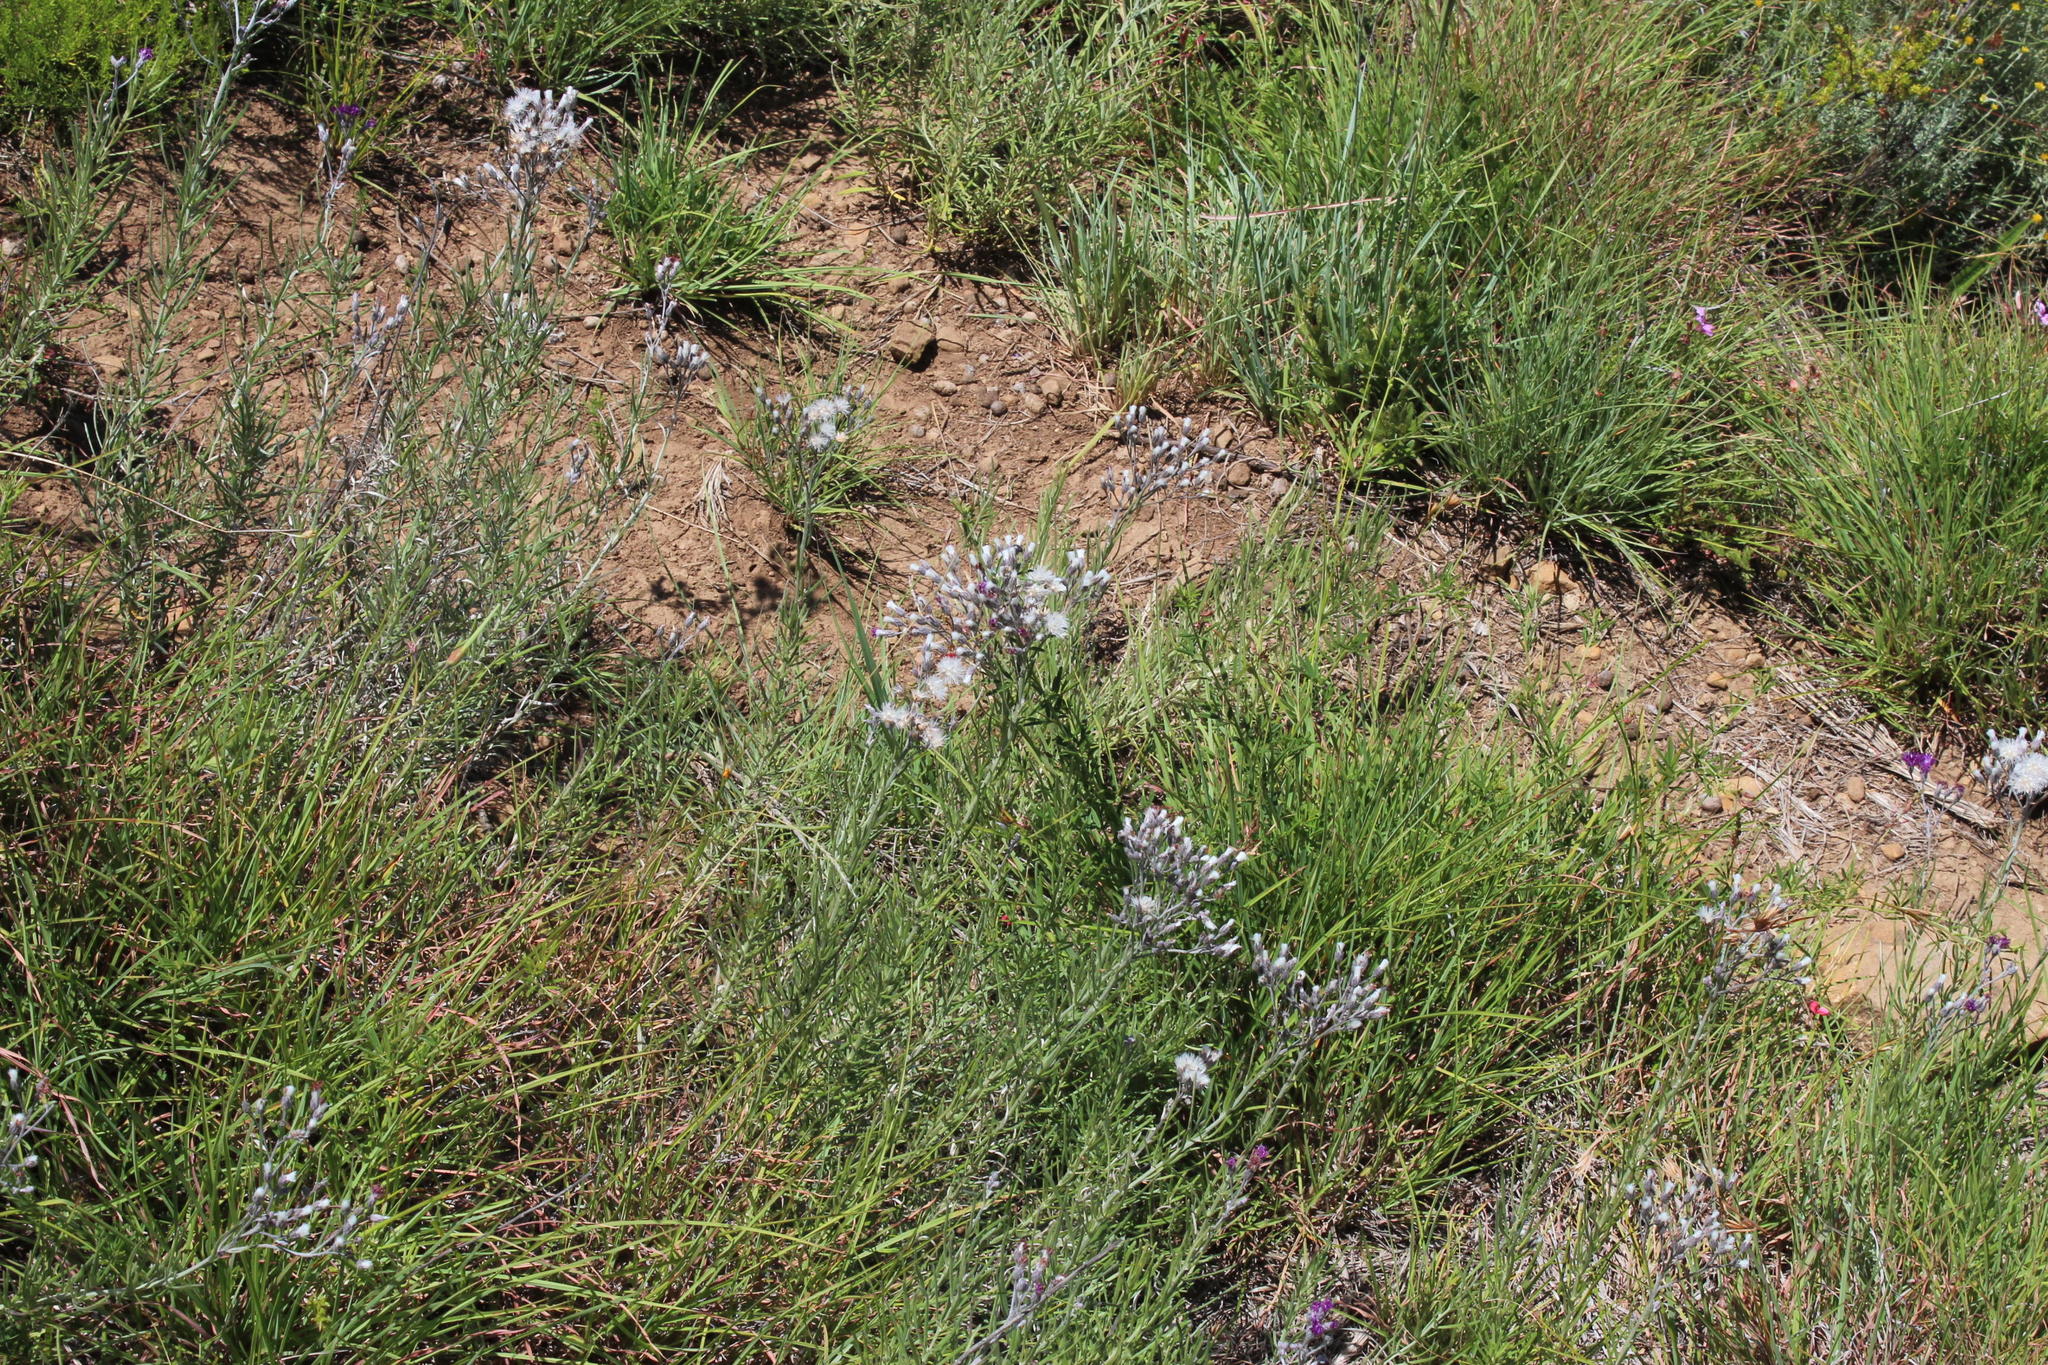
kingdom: Plantae
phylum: Tracheophyta
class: Magnoliopsida
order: Asterales
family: Asteraceae
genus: Hilliardiella
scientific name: Hilliardiella capensis
